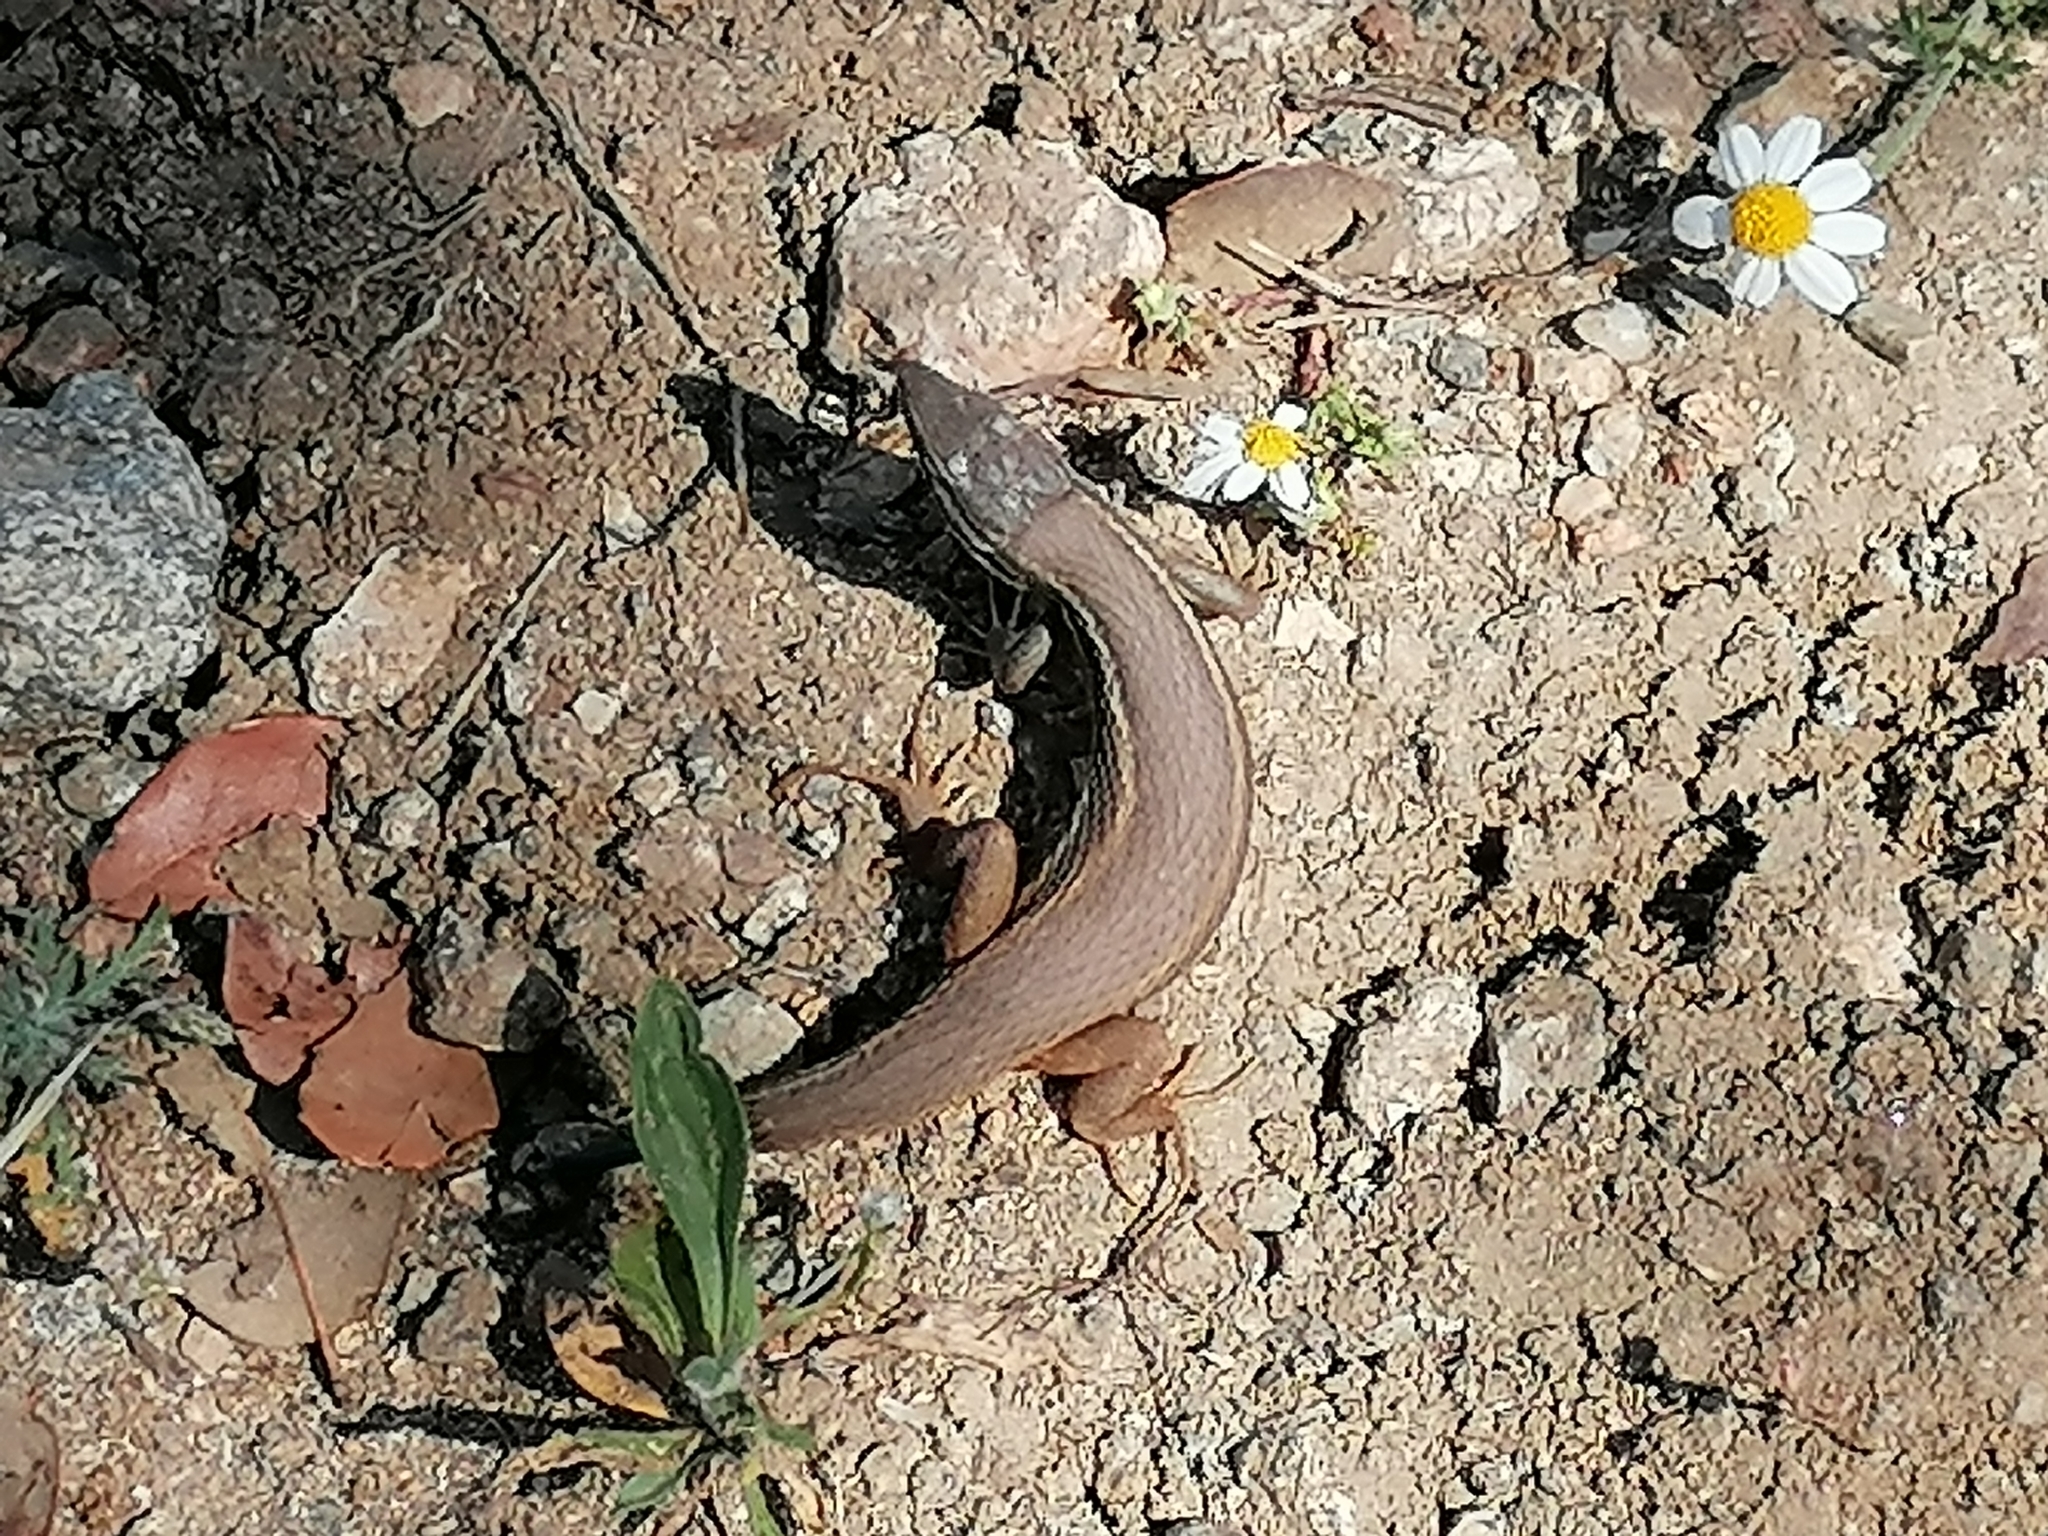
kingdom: Animalia
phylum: Chordata
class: Squamata
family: Lacertidae
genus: Psammodromus
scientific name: Psammodromus algirus
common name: Algerian psammodromus
